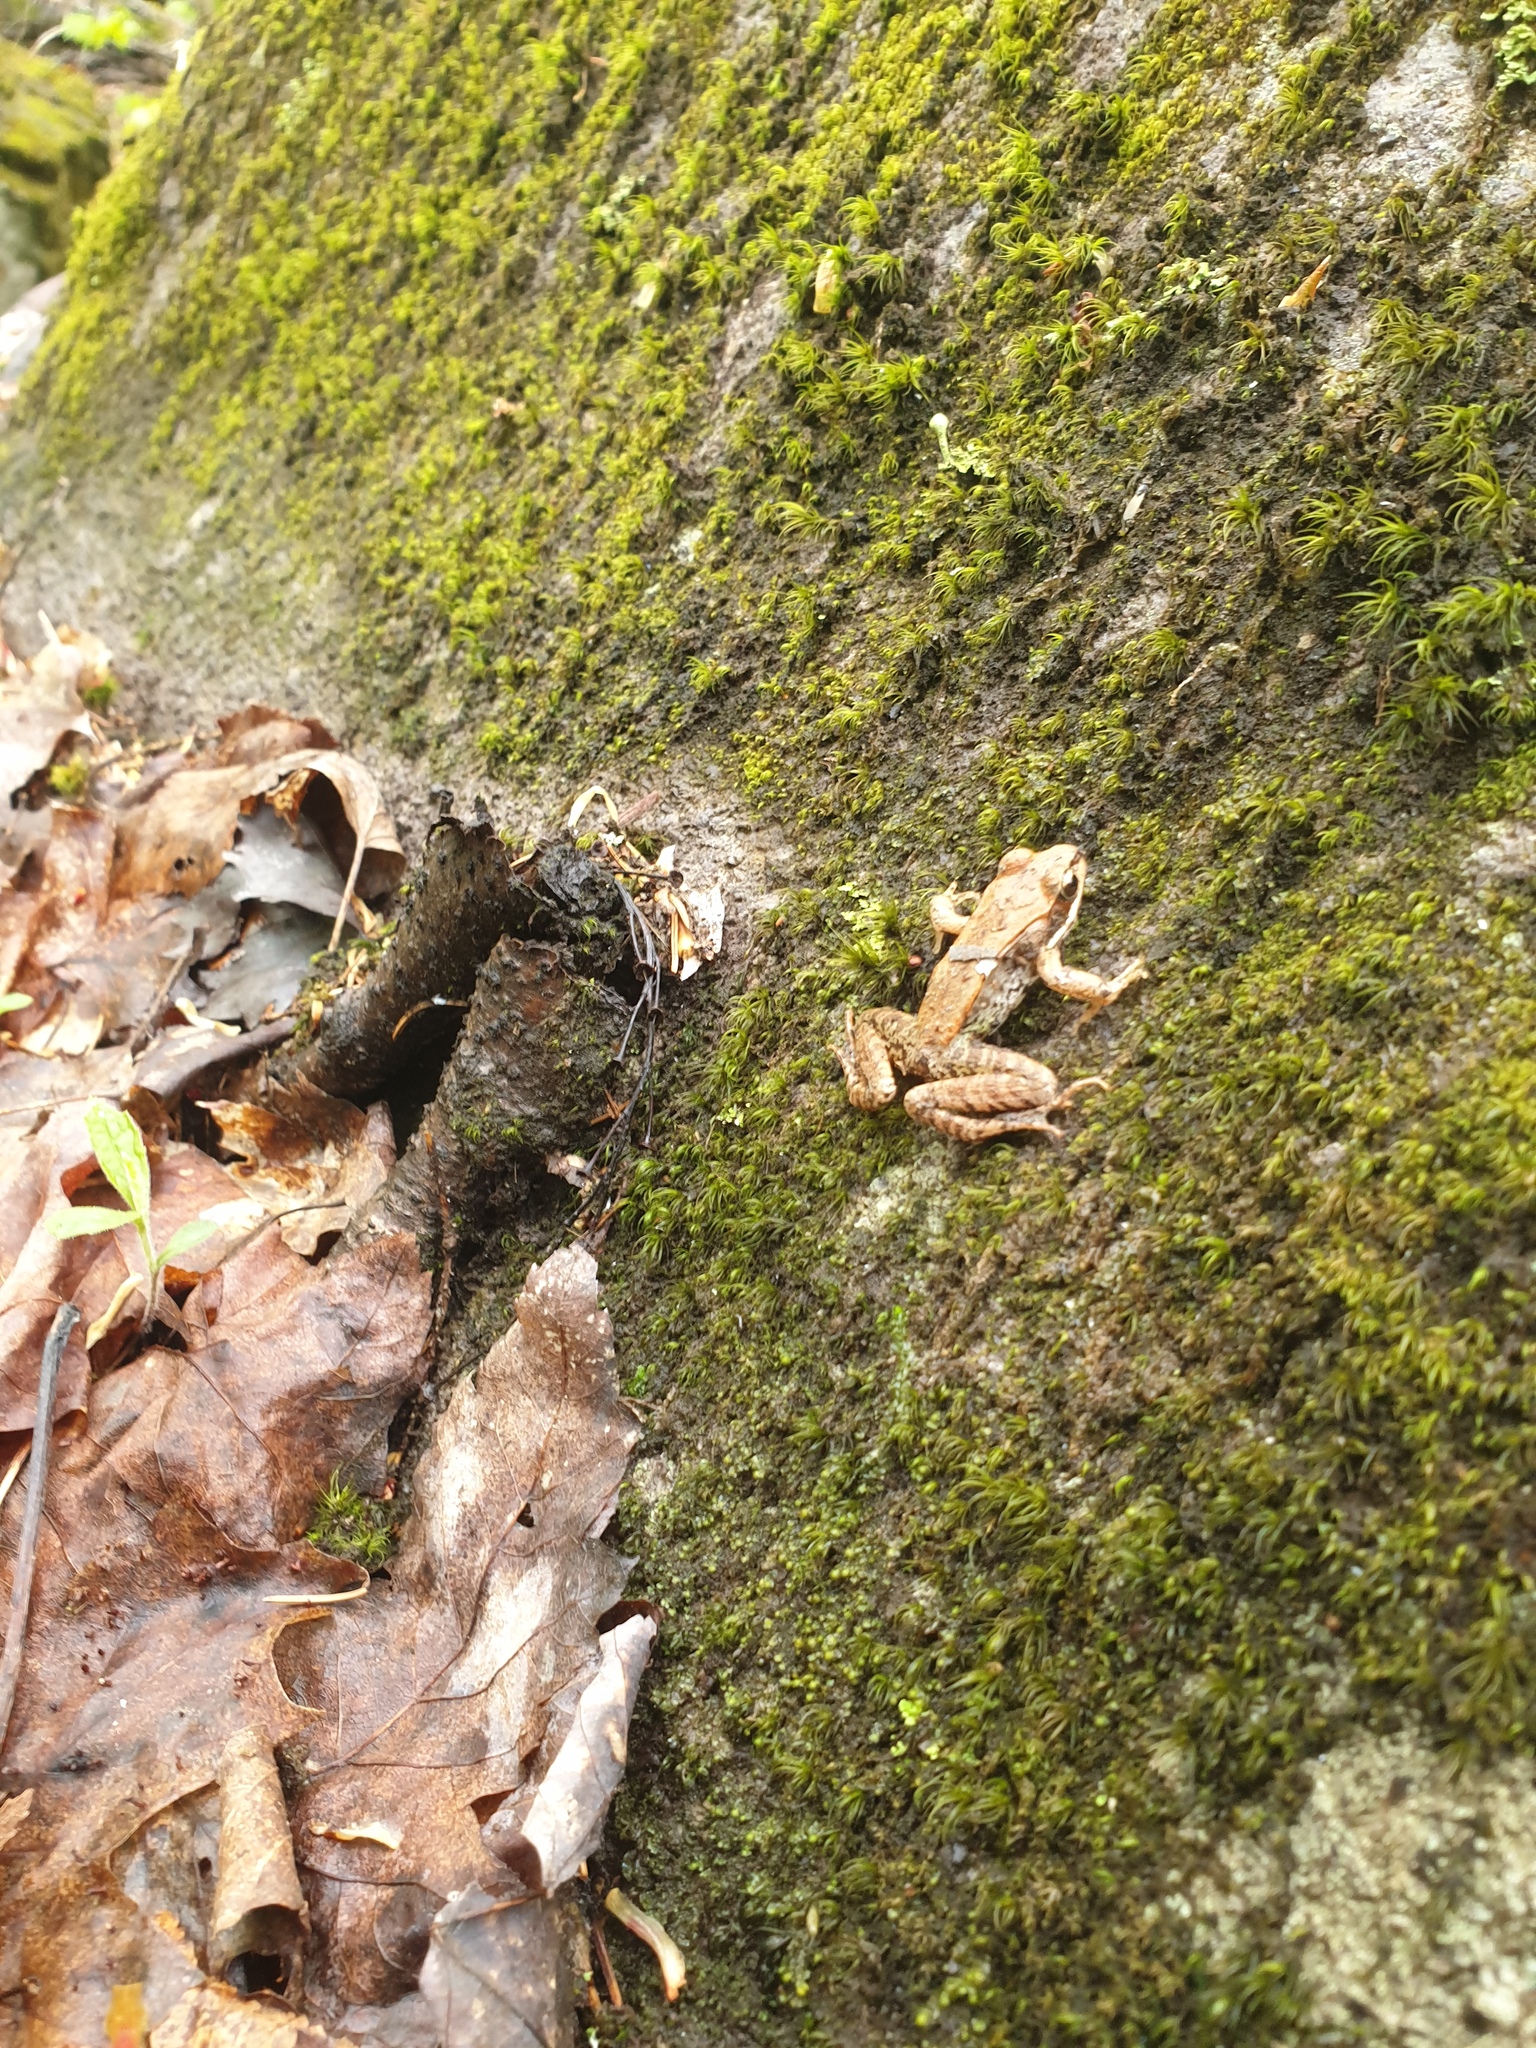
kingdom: Animalia
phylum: Chordata
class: Amphibia
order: Anura
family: Ranidae
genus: Lithobates
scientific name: Lithobates sylvaticus
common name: Wood frog
